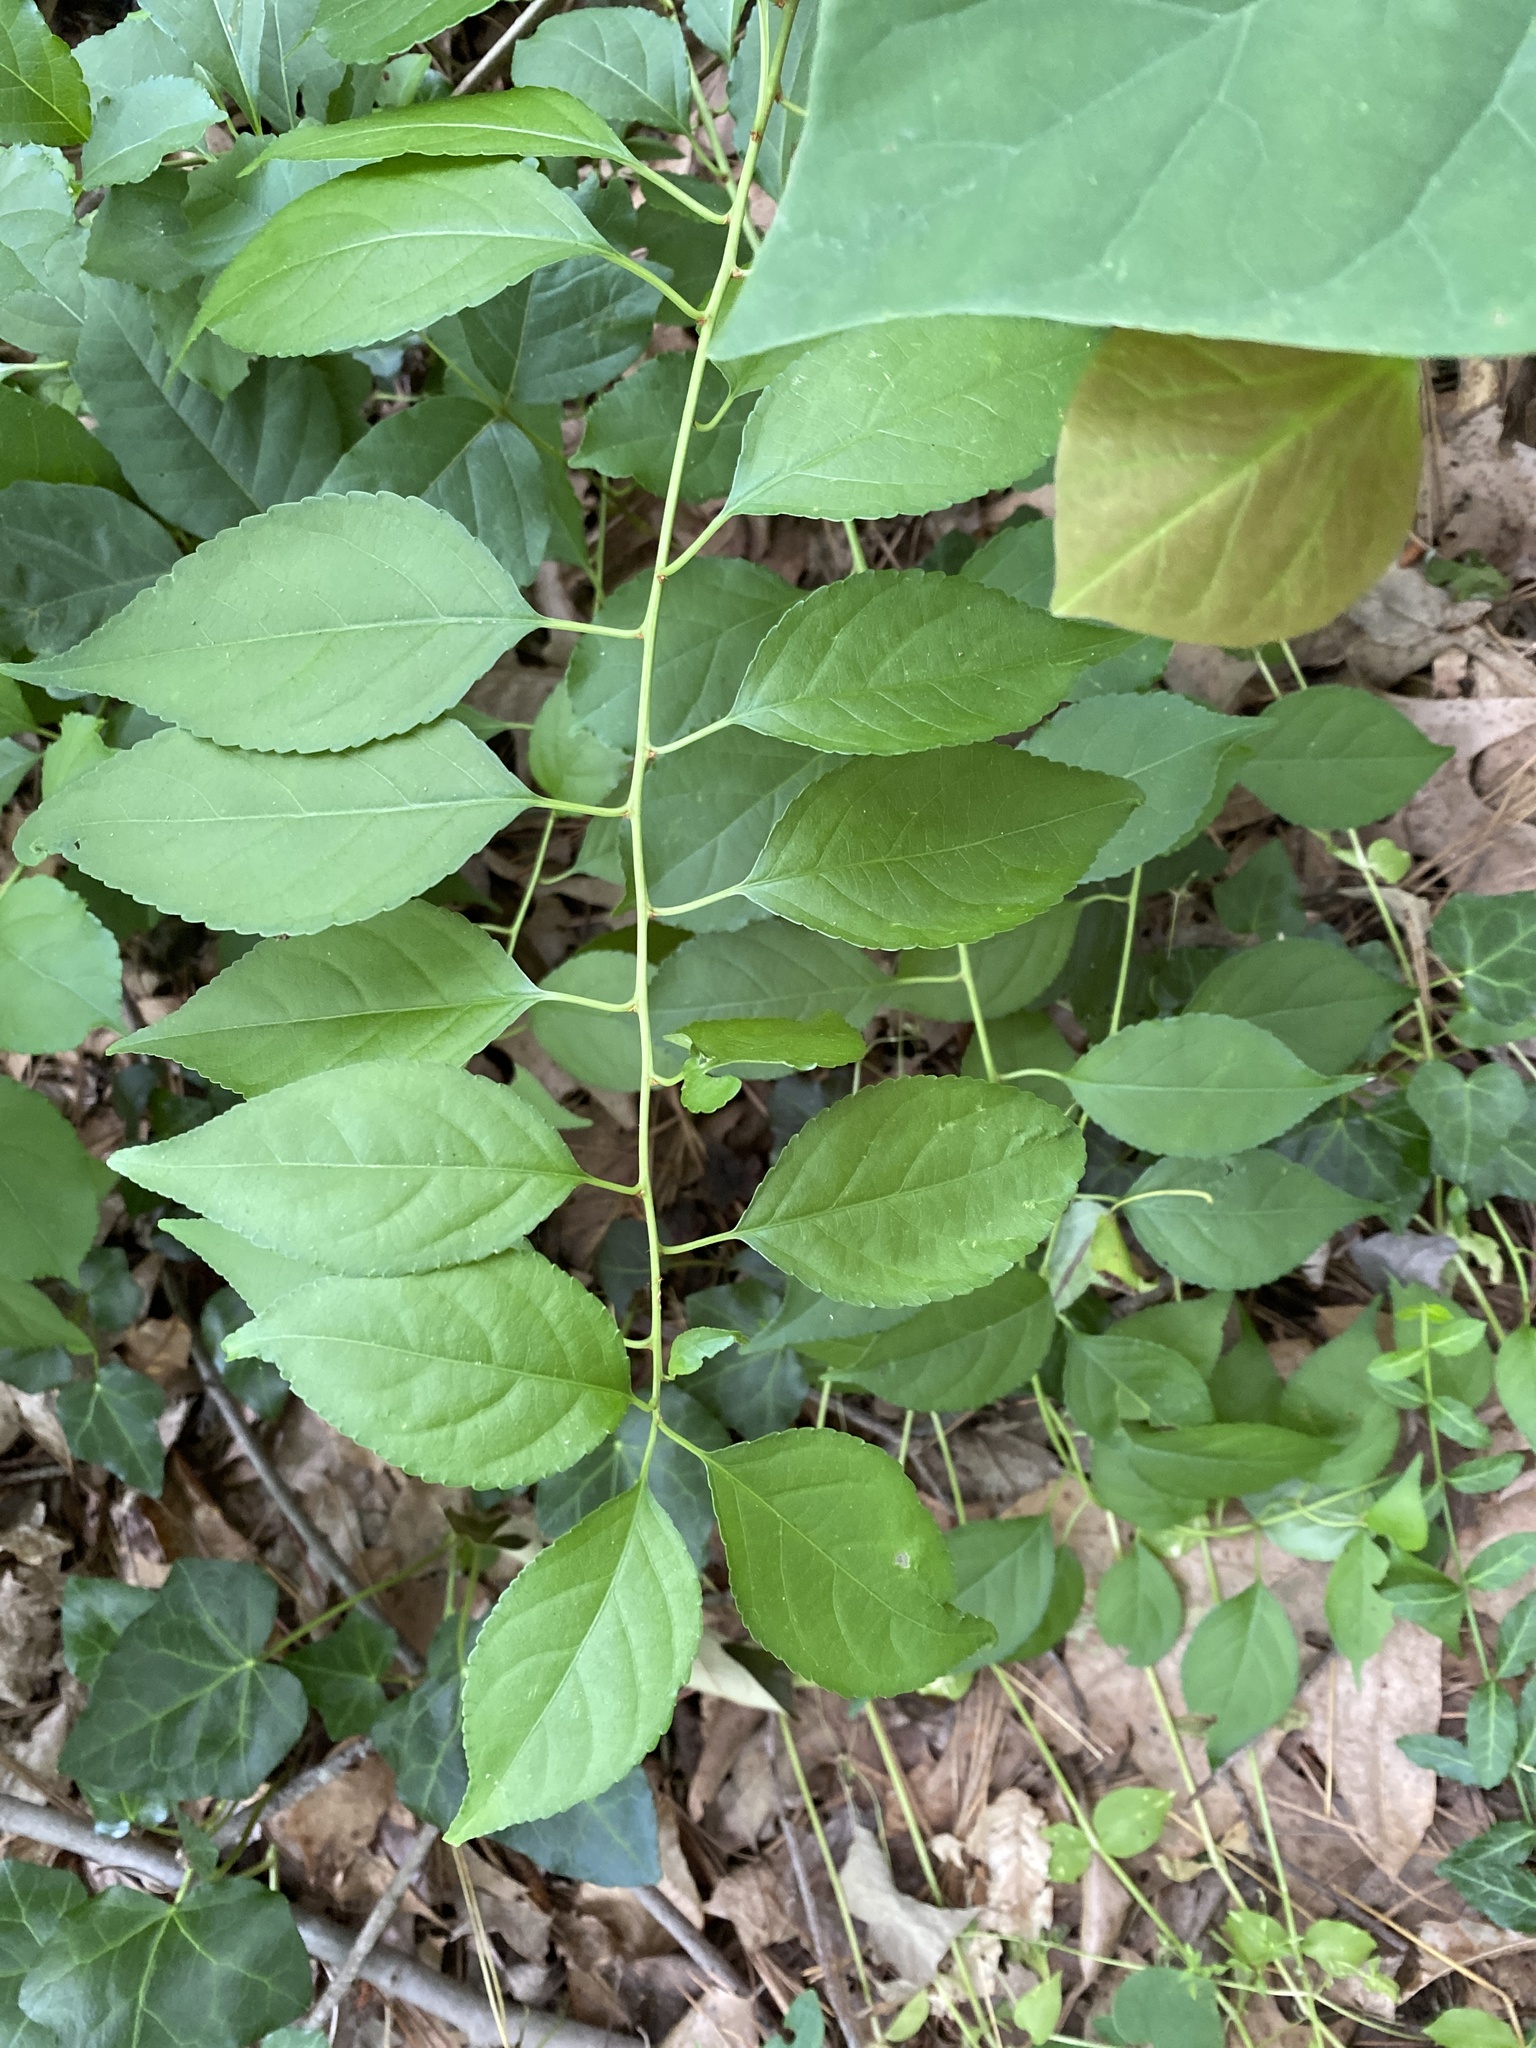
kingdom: Plantae
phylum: Tracheophyta
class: Magnoliopsida
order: Celastrales
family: Celastraceae
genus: Celastrus
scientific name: Celastrus orbiculatus
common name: Oriental bittersweet
